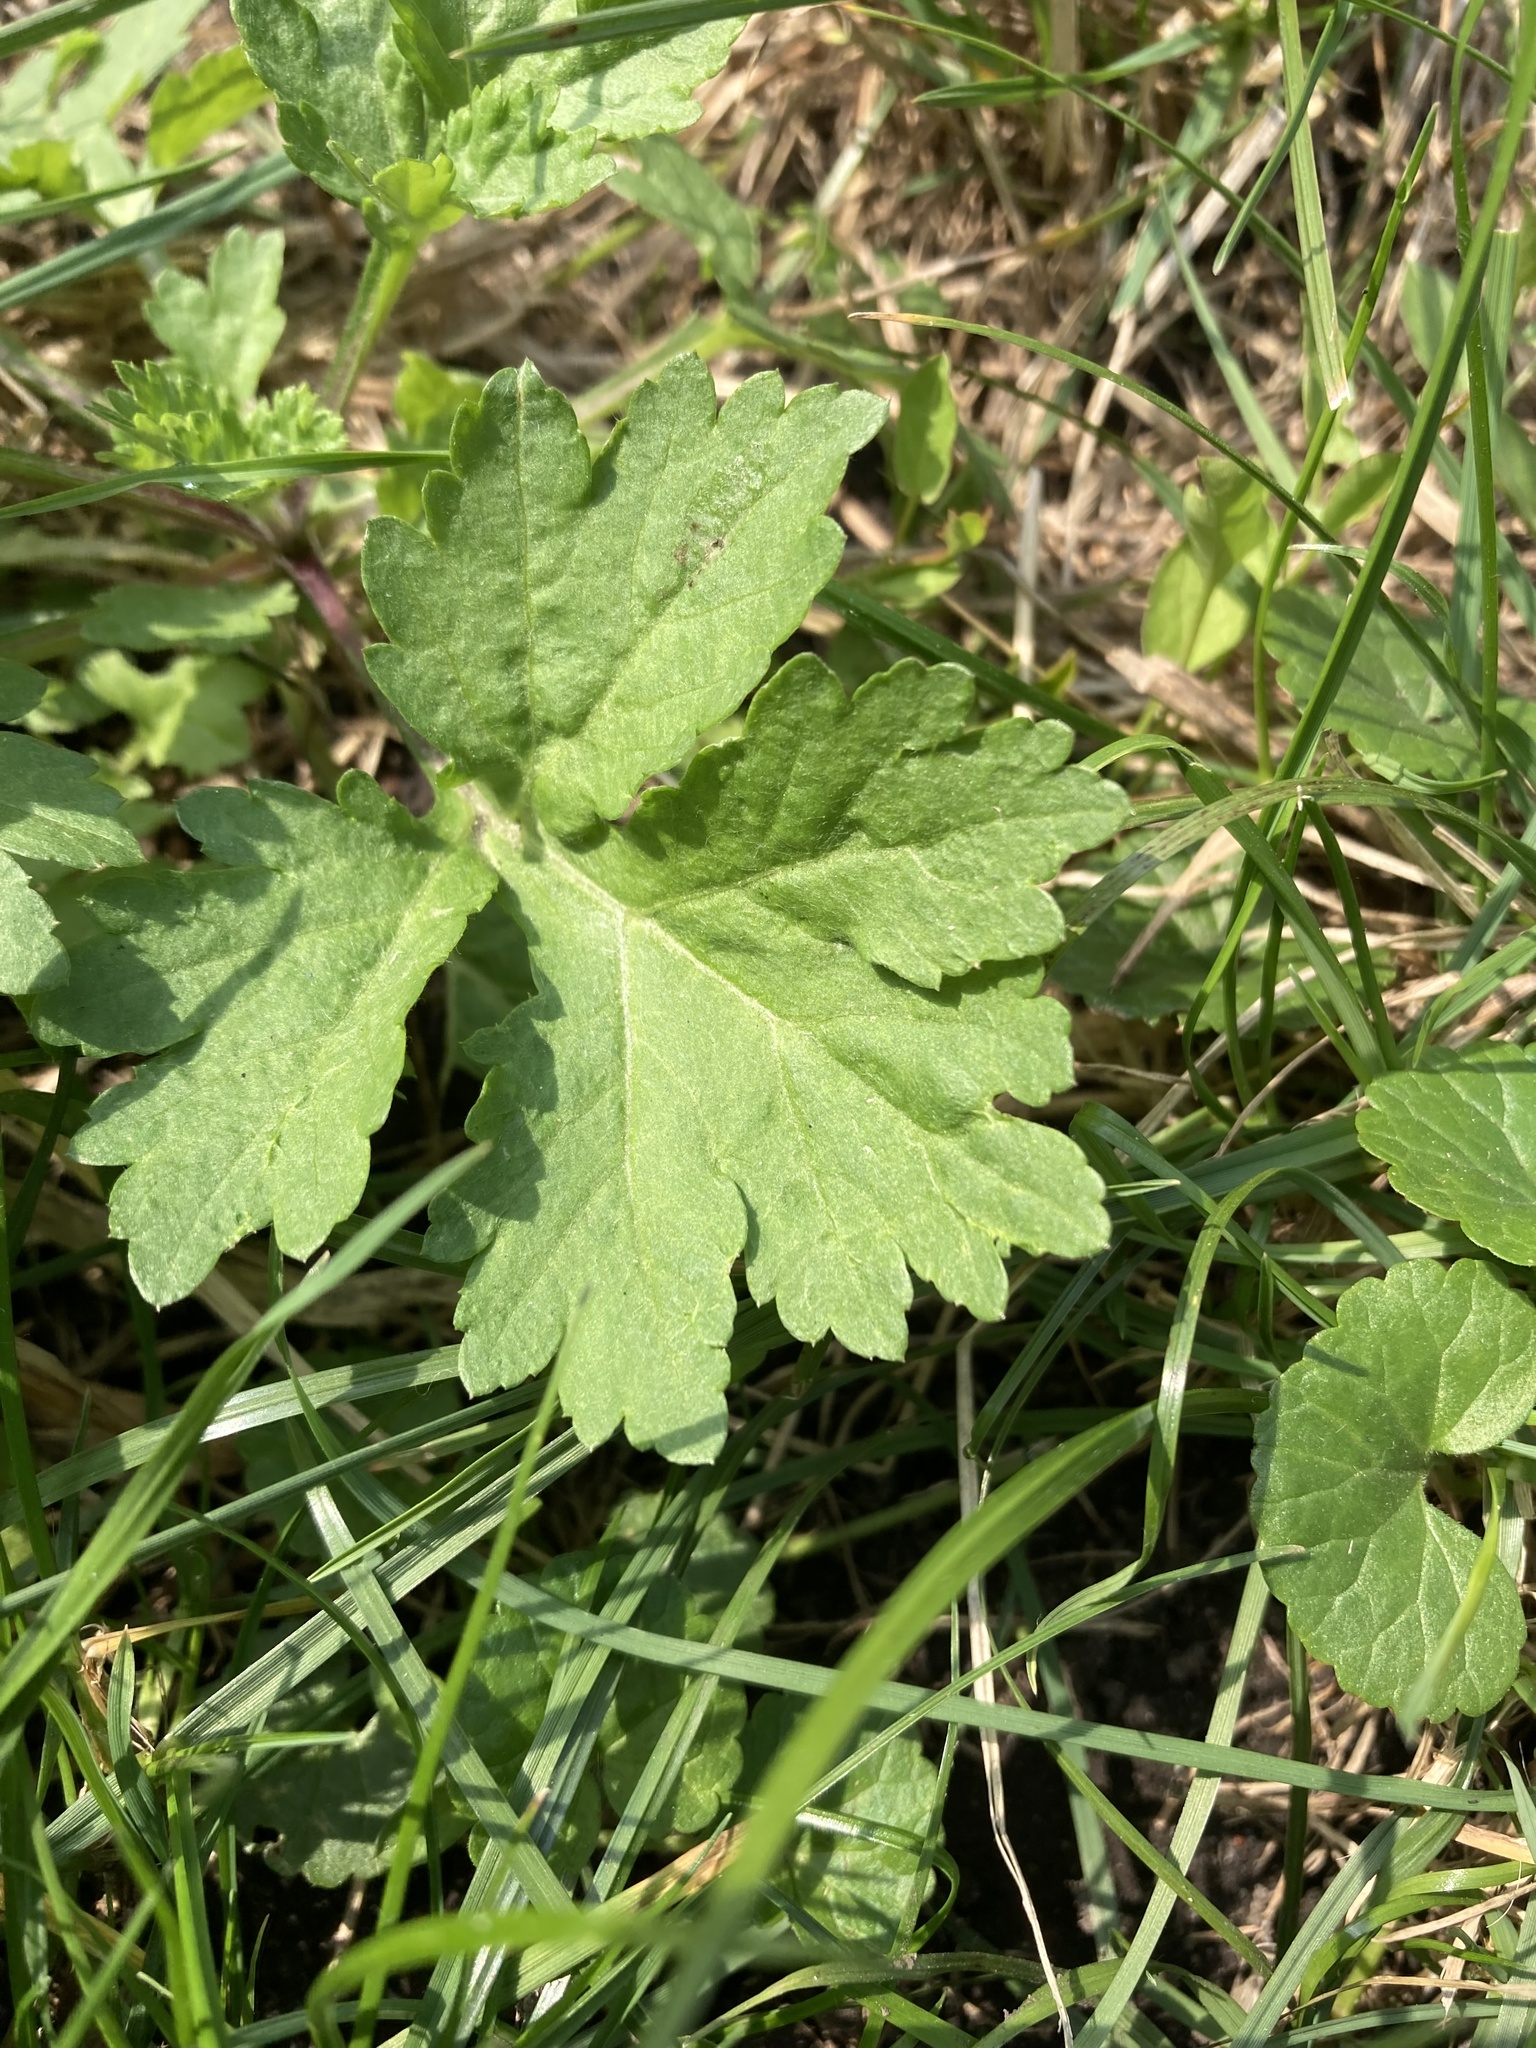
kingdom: Plantae
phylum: Tracheophyta
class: Magnoliopsida
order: Asterales
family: Asteraceae
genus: Artemisia
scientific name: Artemisia vulgaris
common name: Mugwort
